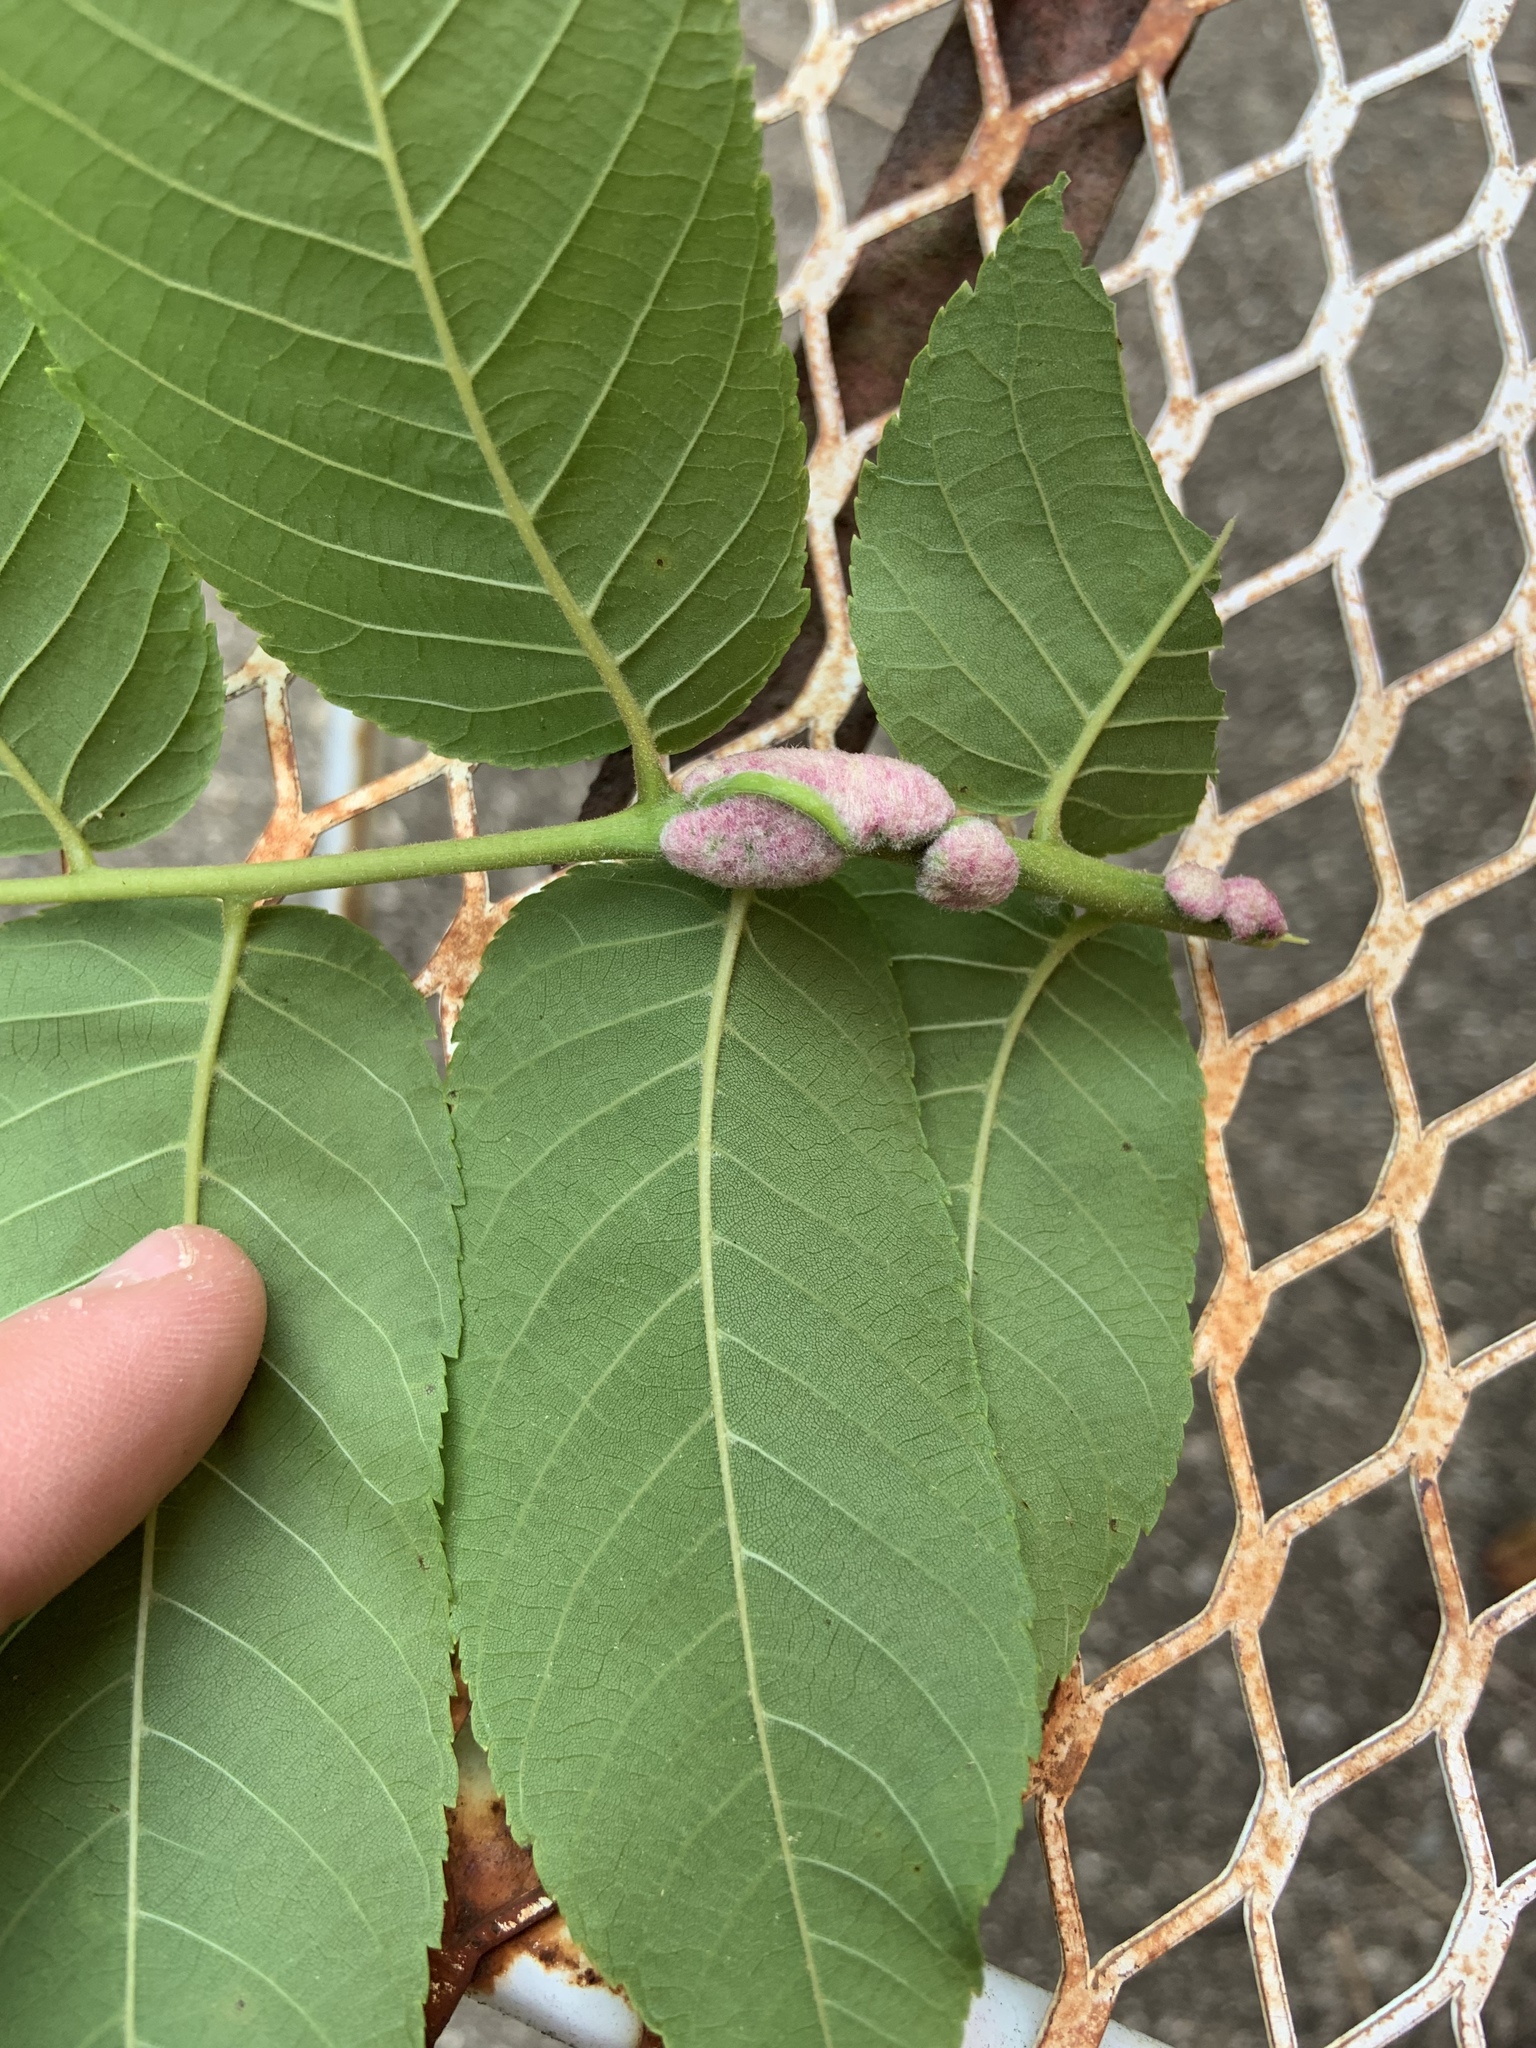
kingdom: Animalia
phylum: Arthropoda
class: Arachnida
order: Trombidiformes
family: Eriophyidae
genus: Aceria
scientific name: Aceria
